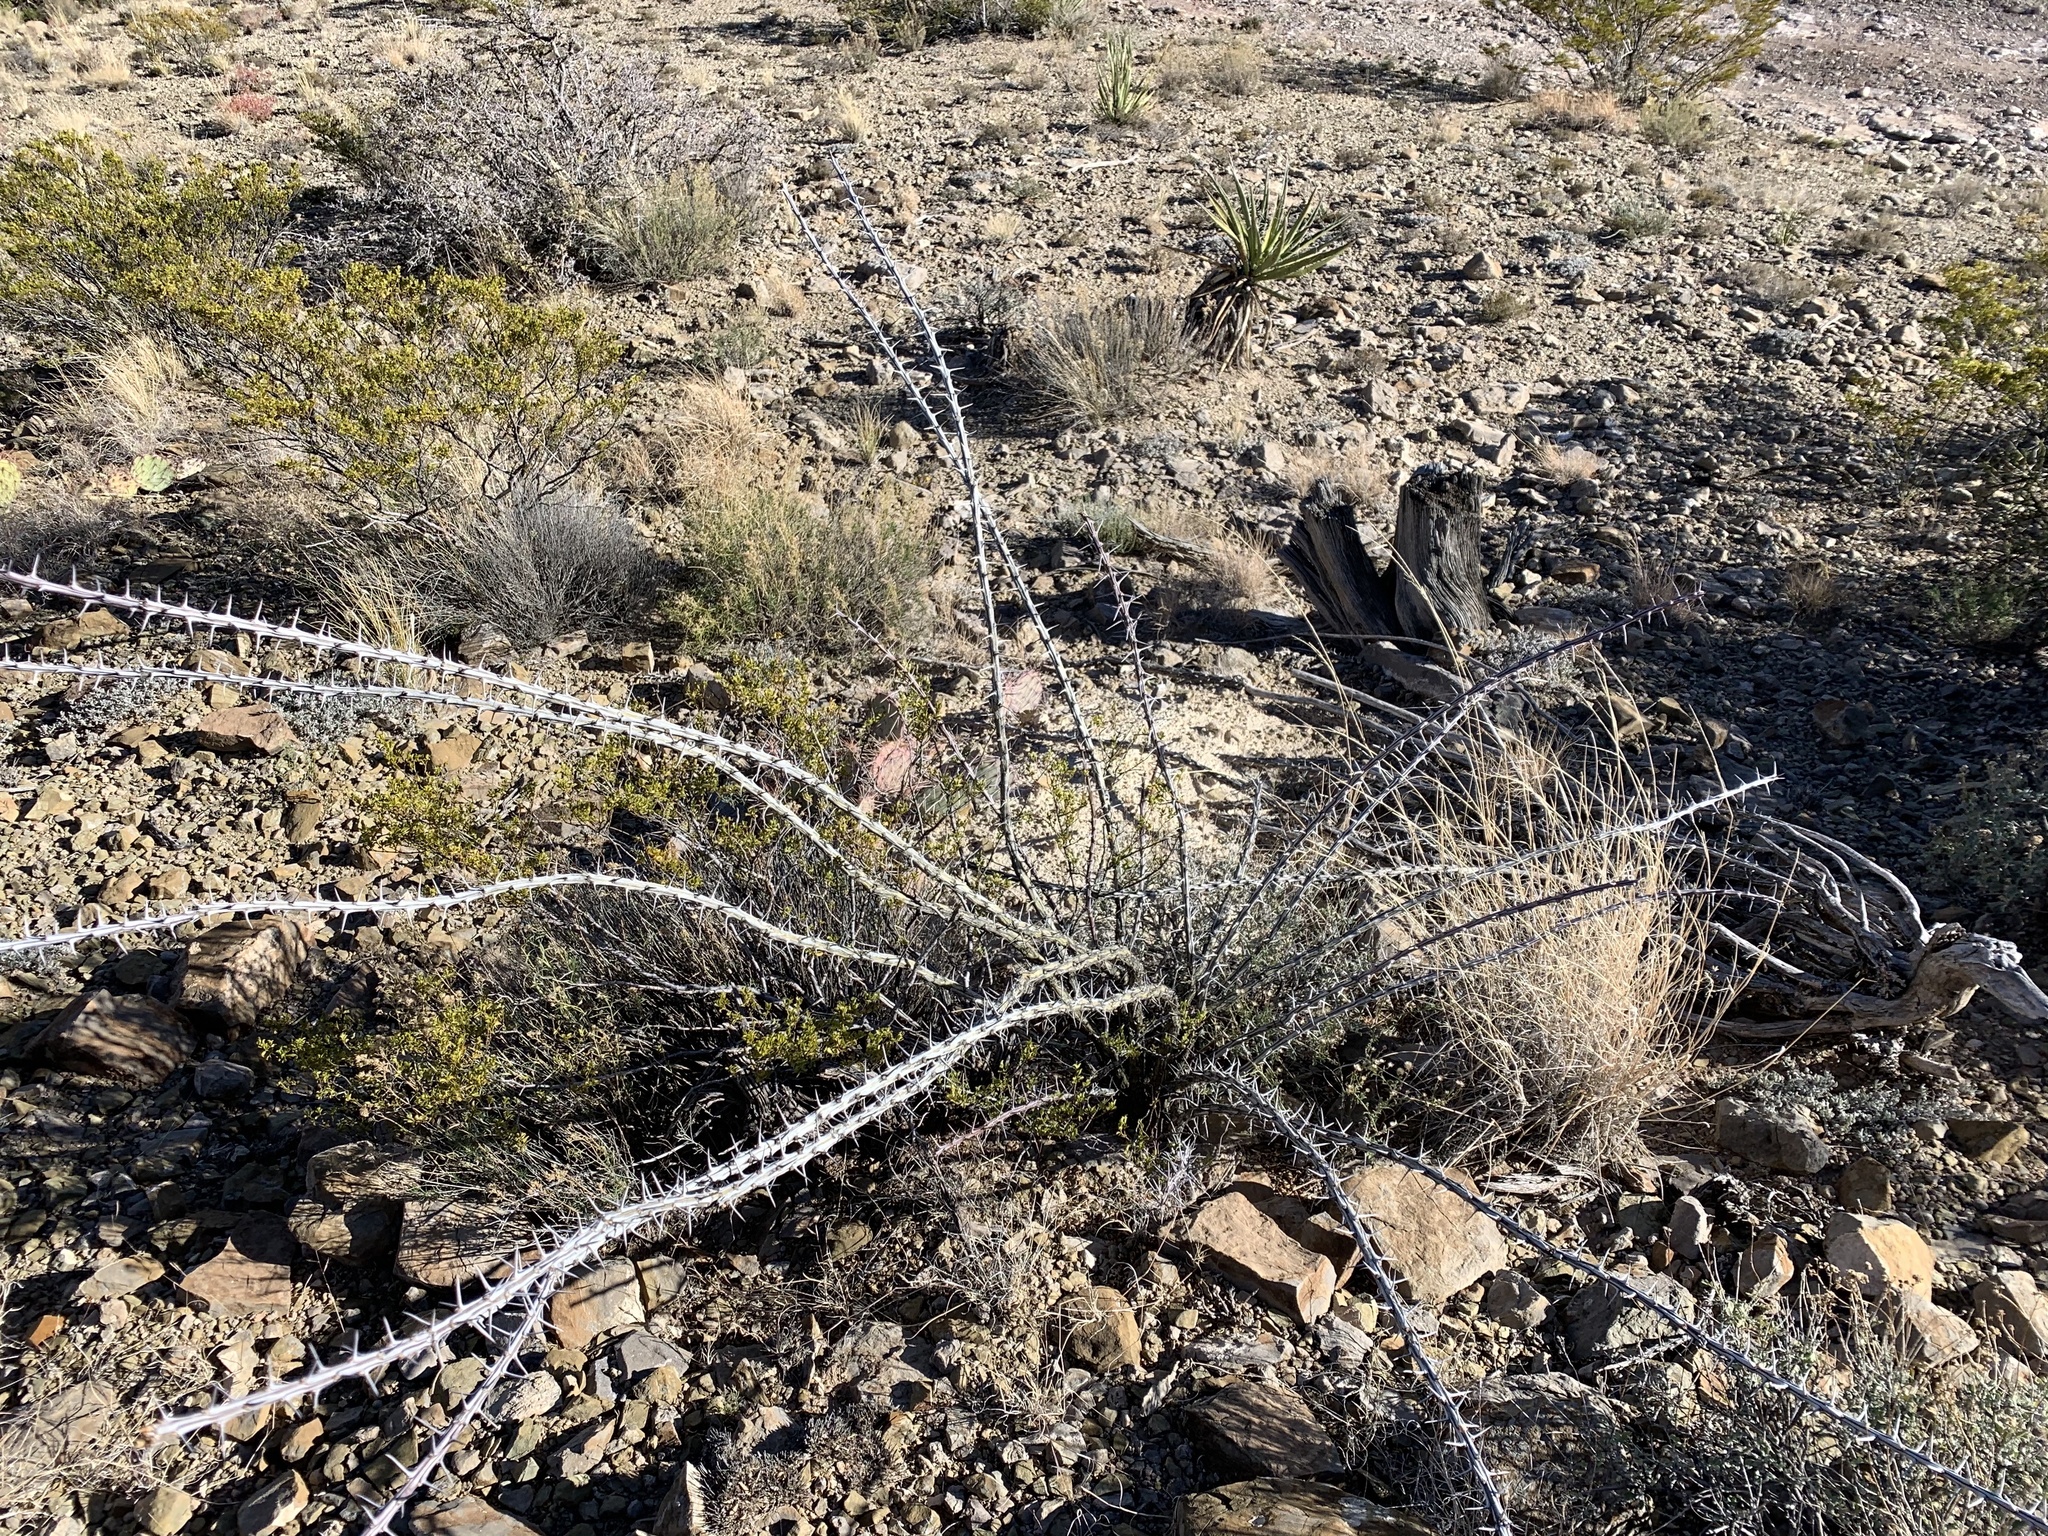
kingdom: Plantae
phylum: Tracheophyta
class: Magnoliopsida
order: Ericales
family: Fouquieriaceae
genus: Fouquieria
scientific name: Fouquieria splendens
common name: Vine-cactus
